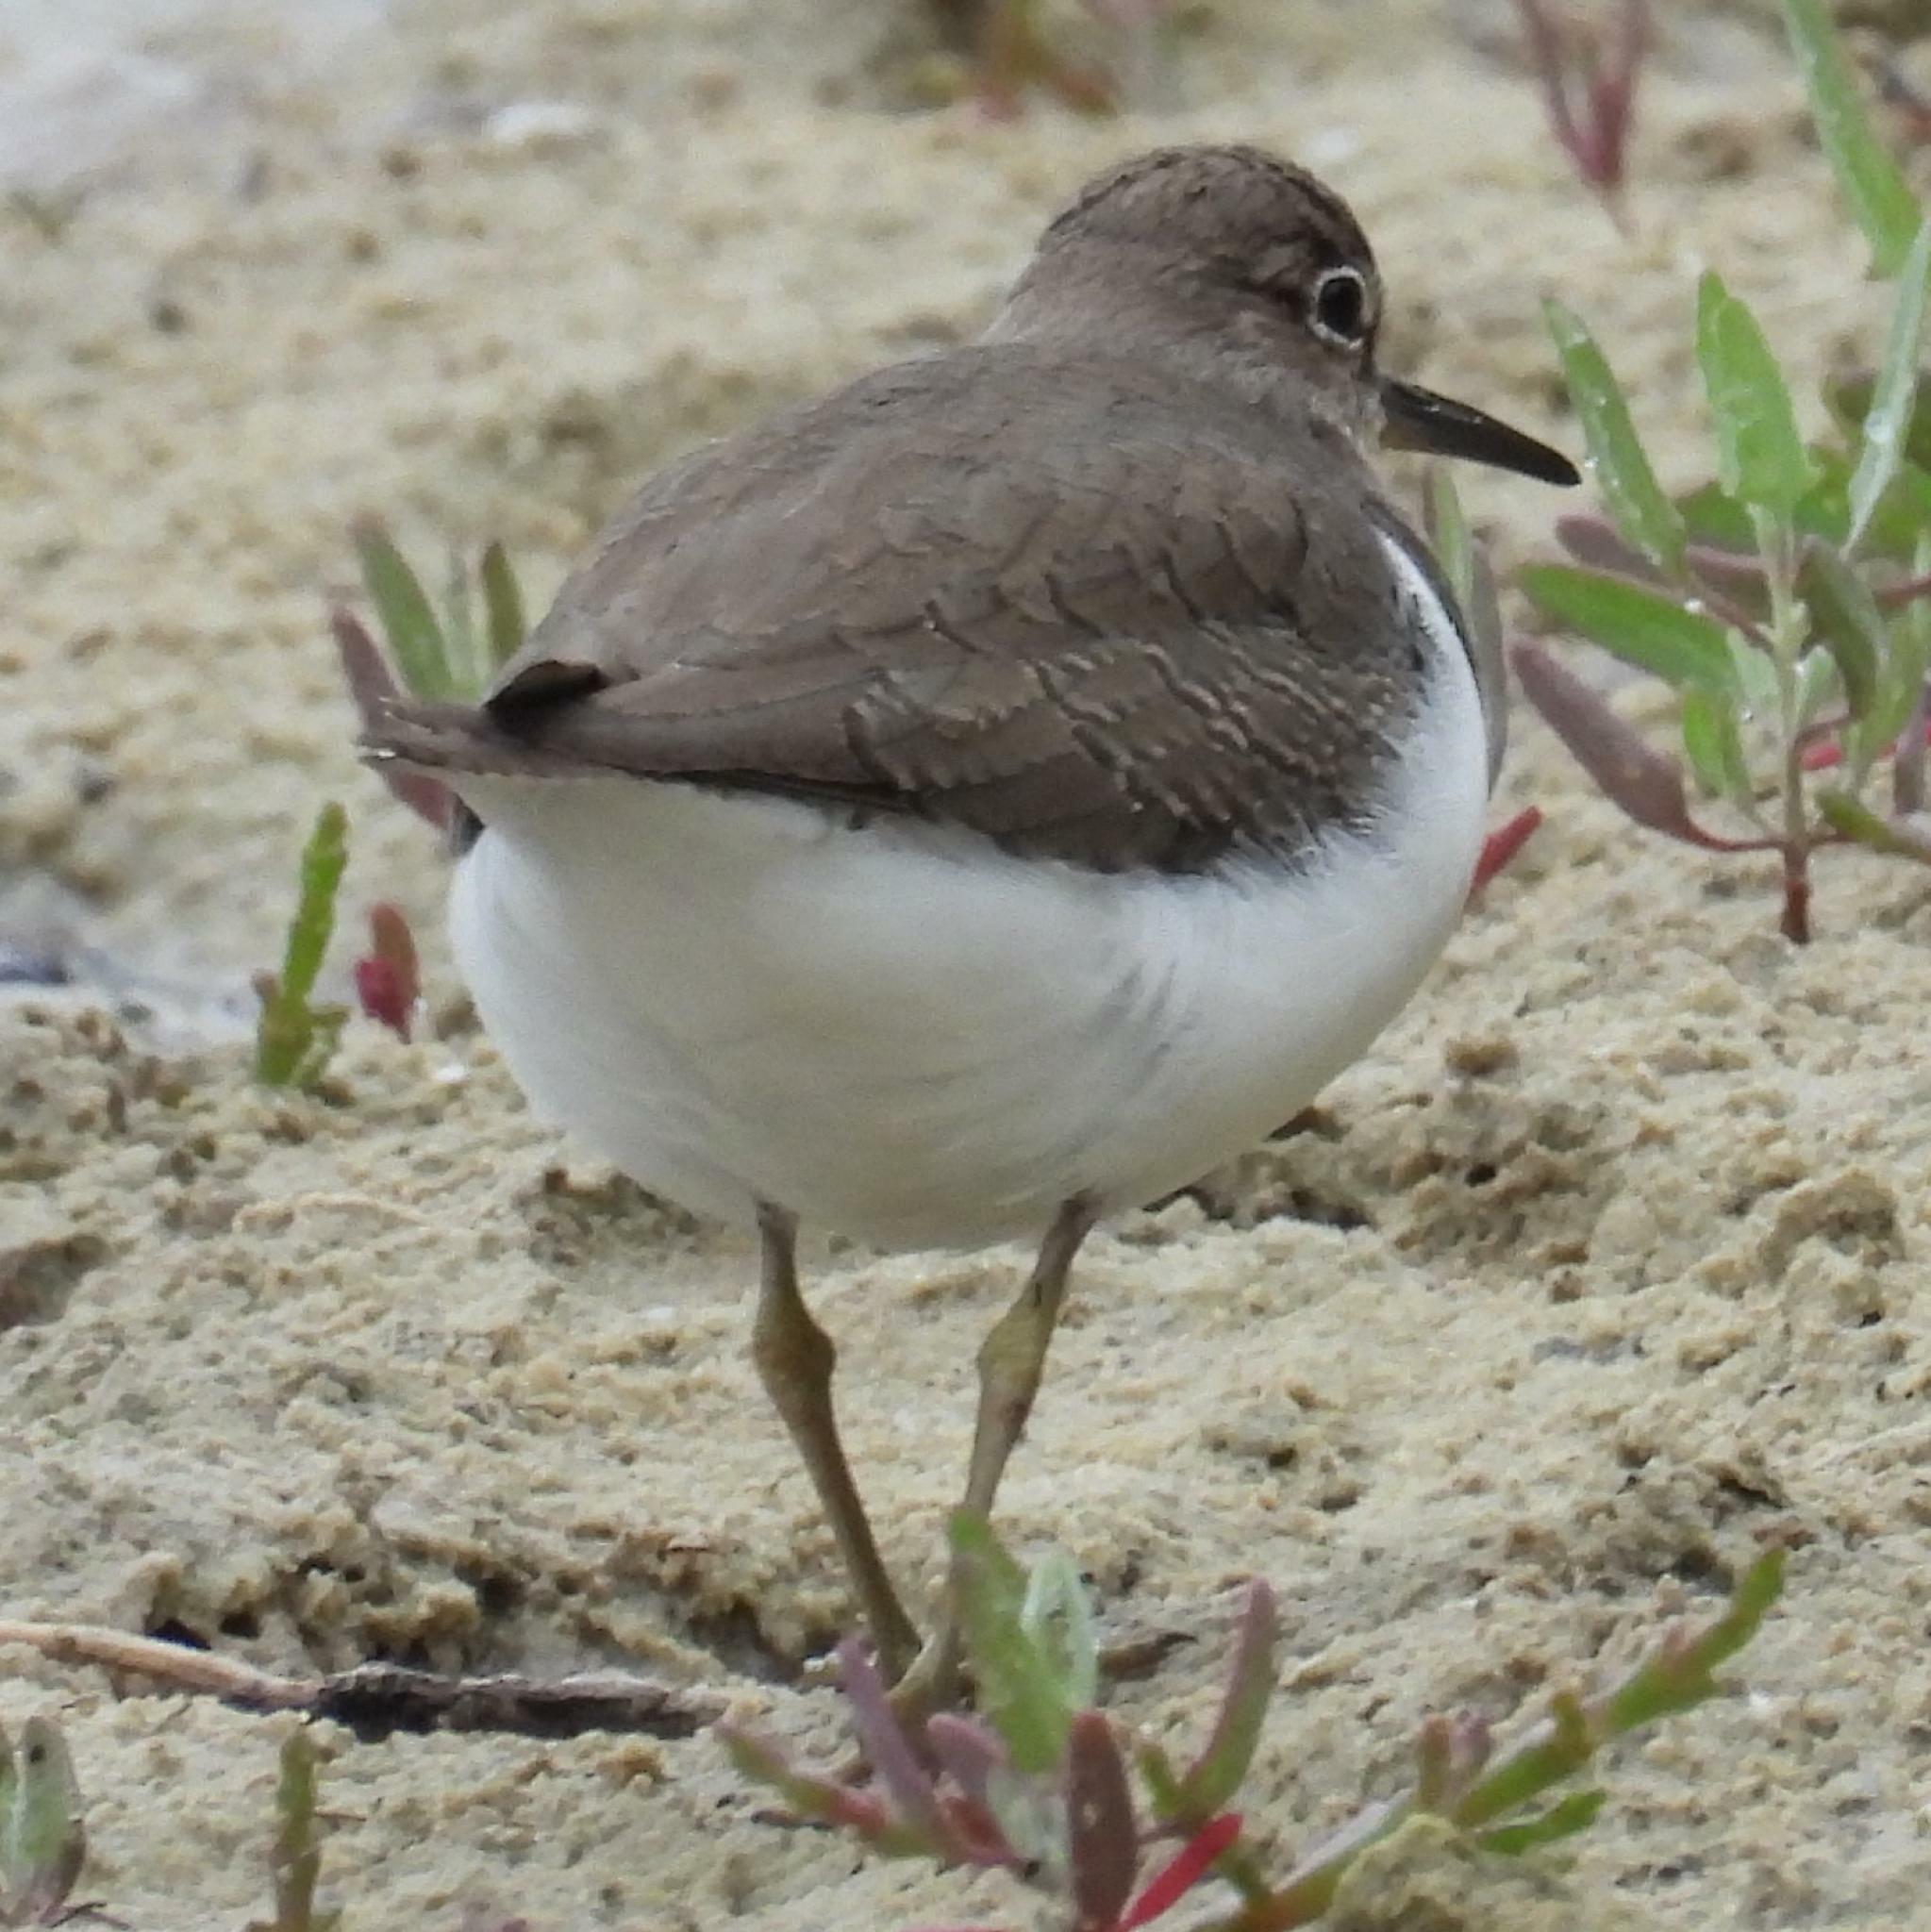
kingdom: Animalia
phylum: Chordata
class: Aves
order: Charadriiformes
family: Scolopacidae
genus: Actitis
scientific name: Actitis hypoleucos
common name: Common sandpiper
